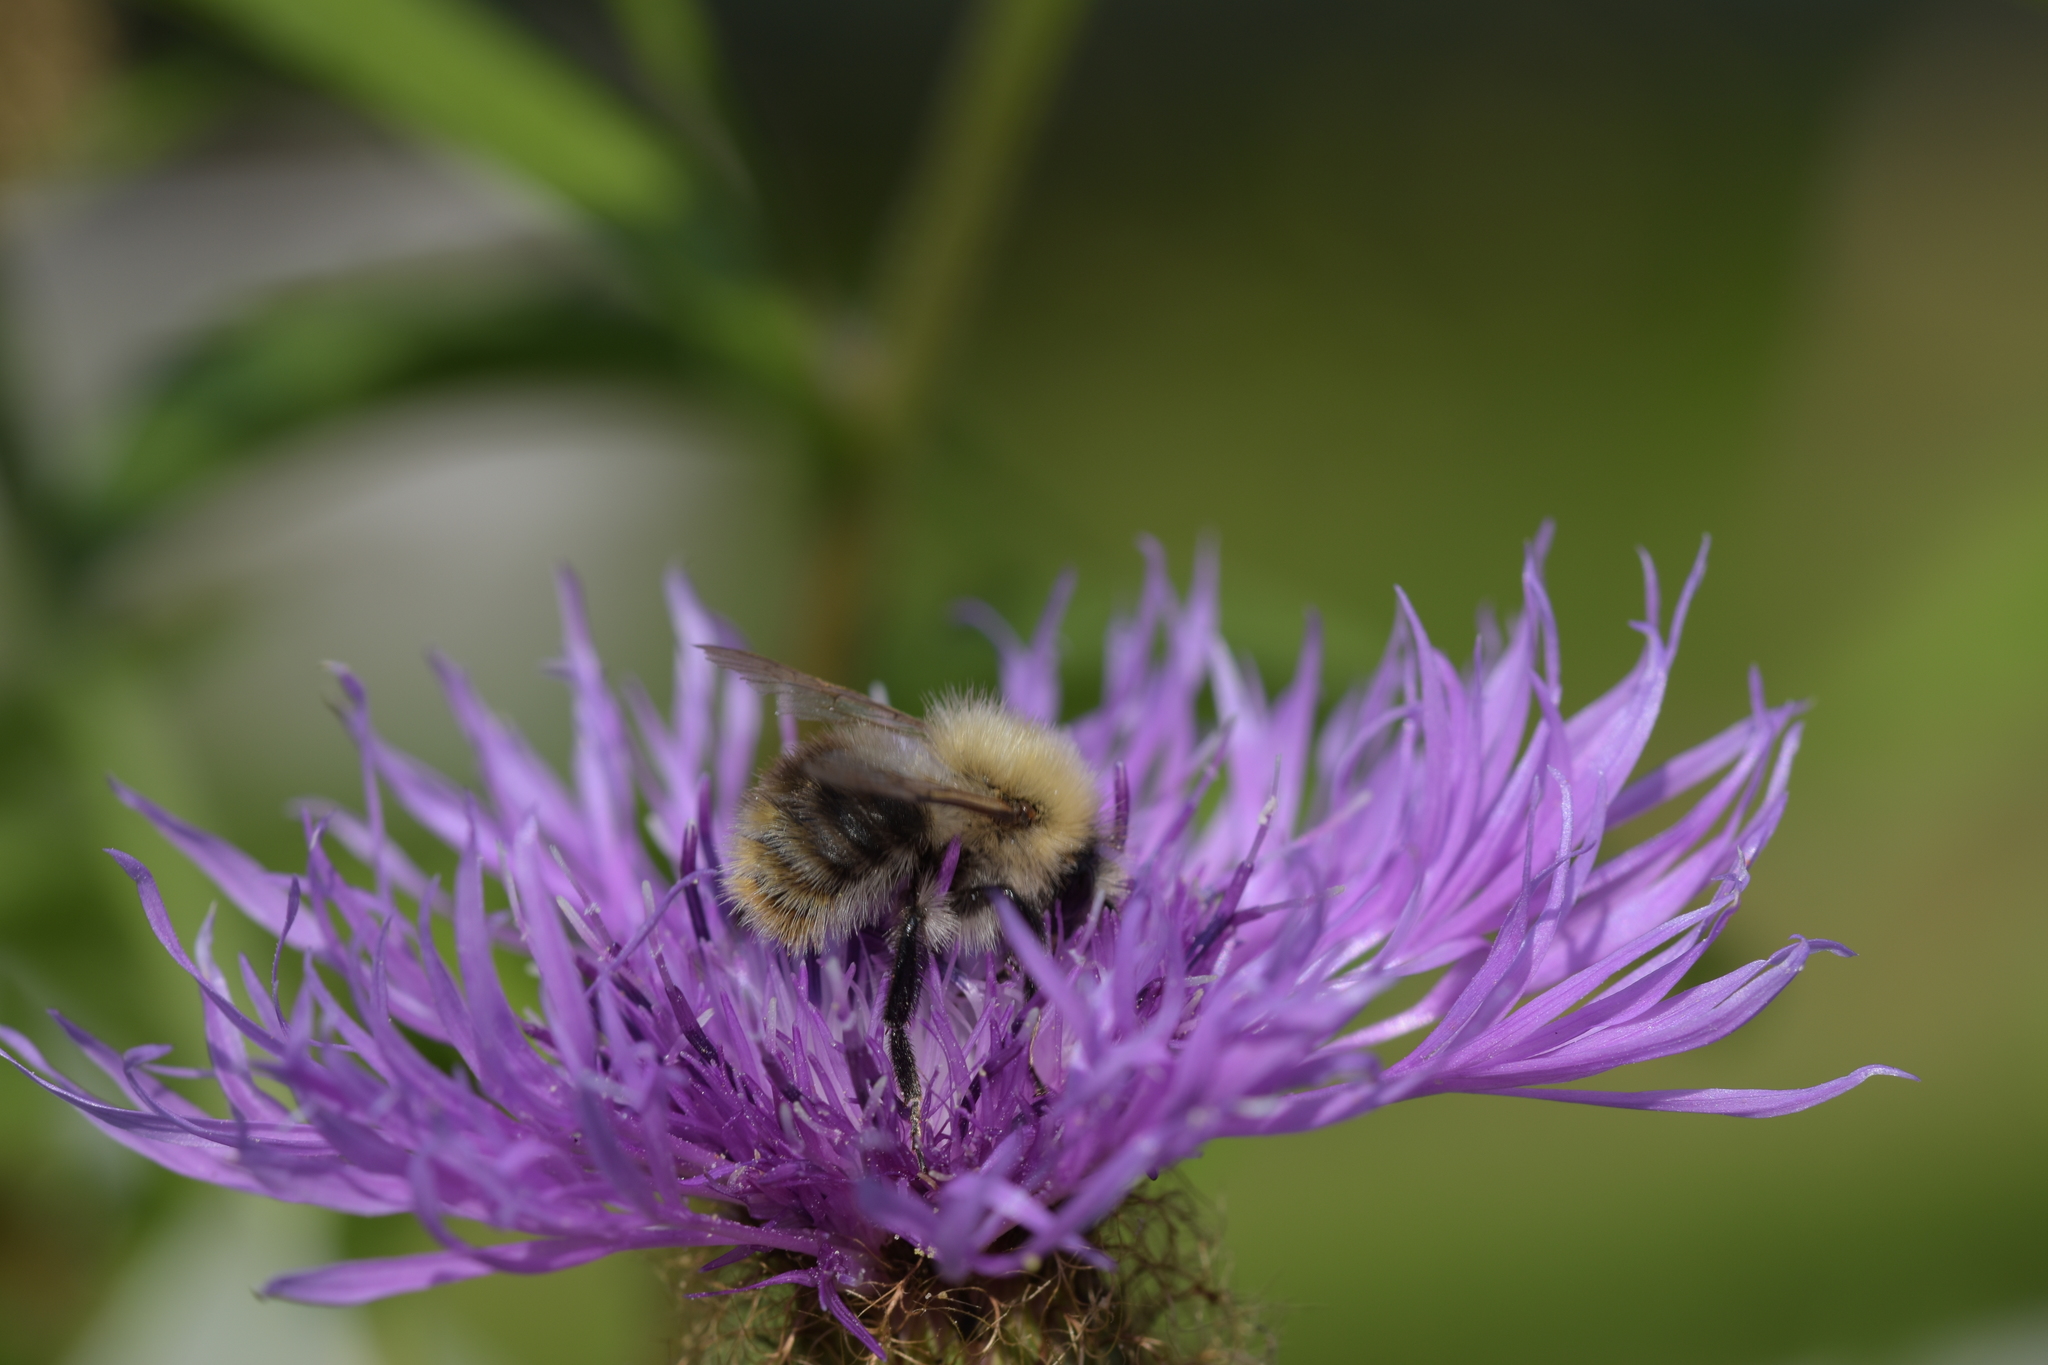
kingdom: Animalia
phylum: Arthropoda
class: Insecta
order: Hymenoptera
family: Apidae
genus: Bombus
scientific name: Bombus pascuorum
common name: Common carder bee
